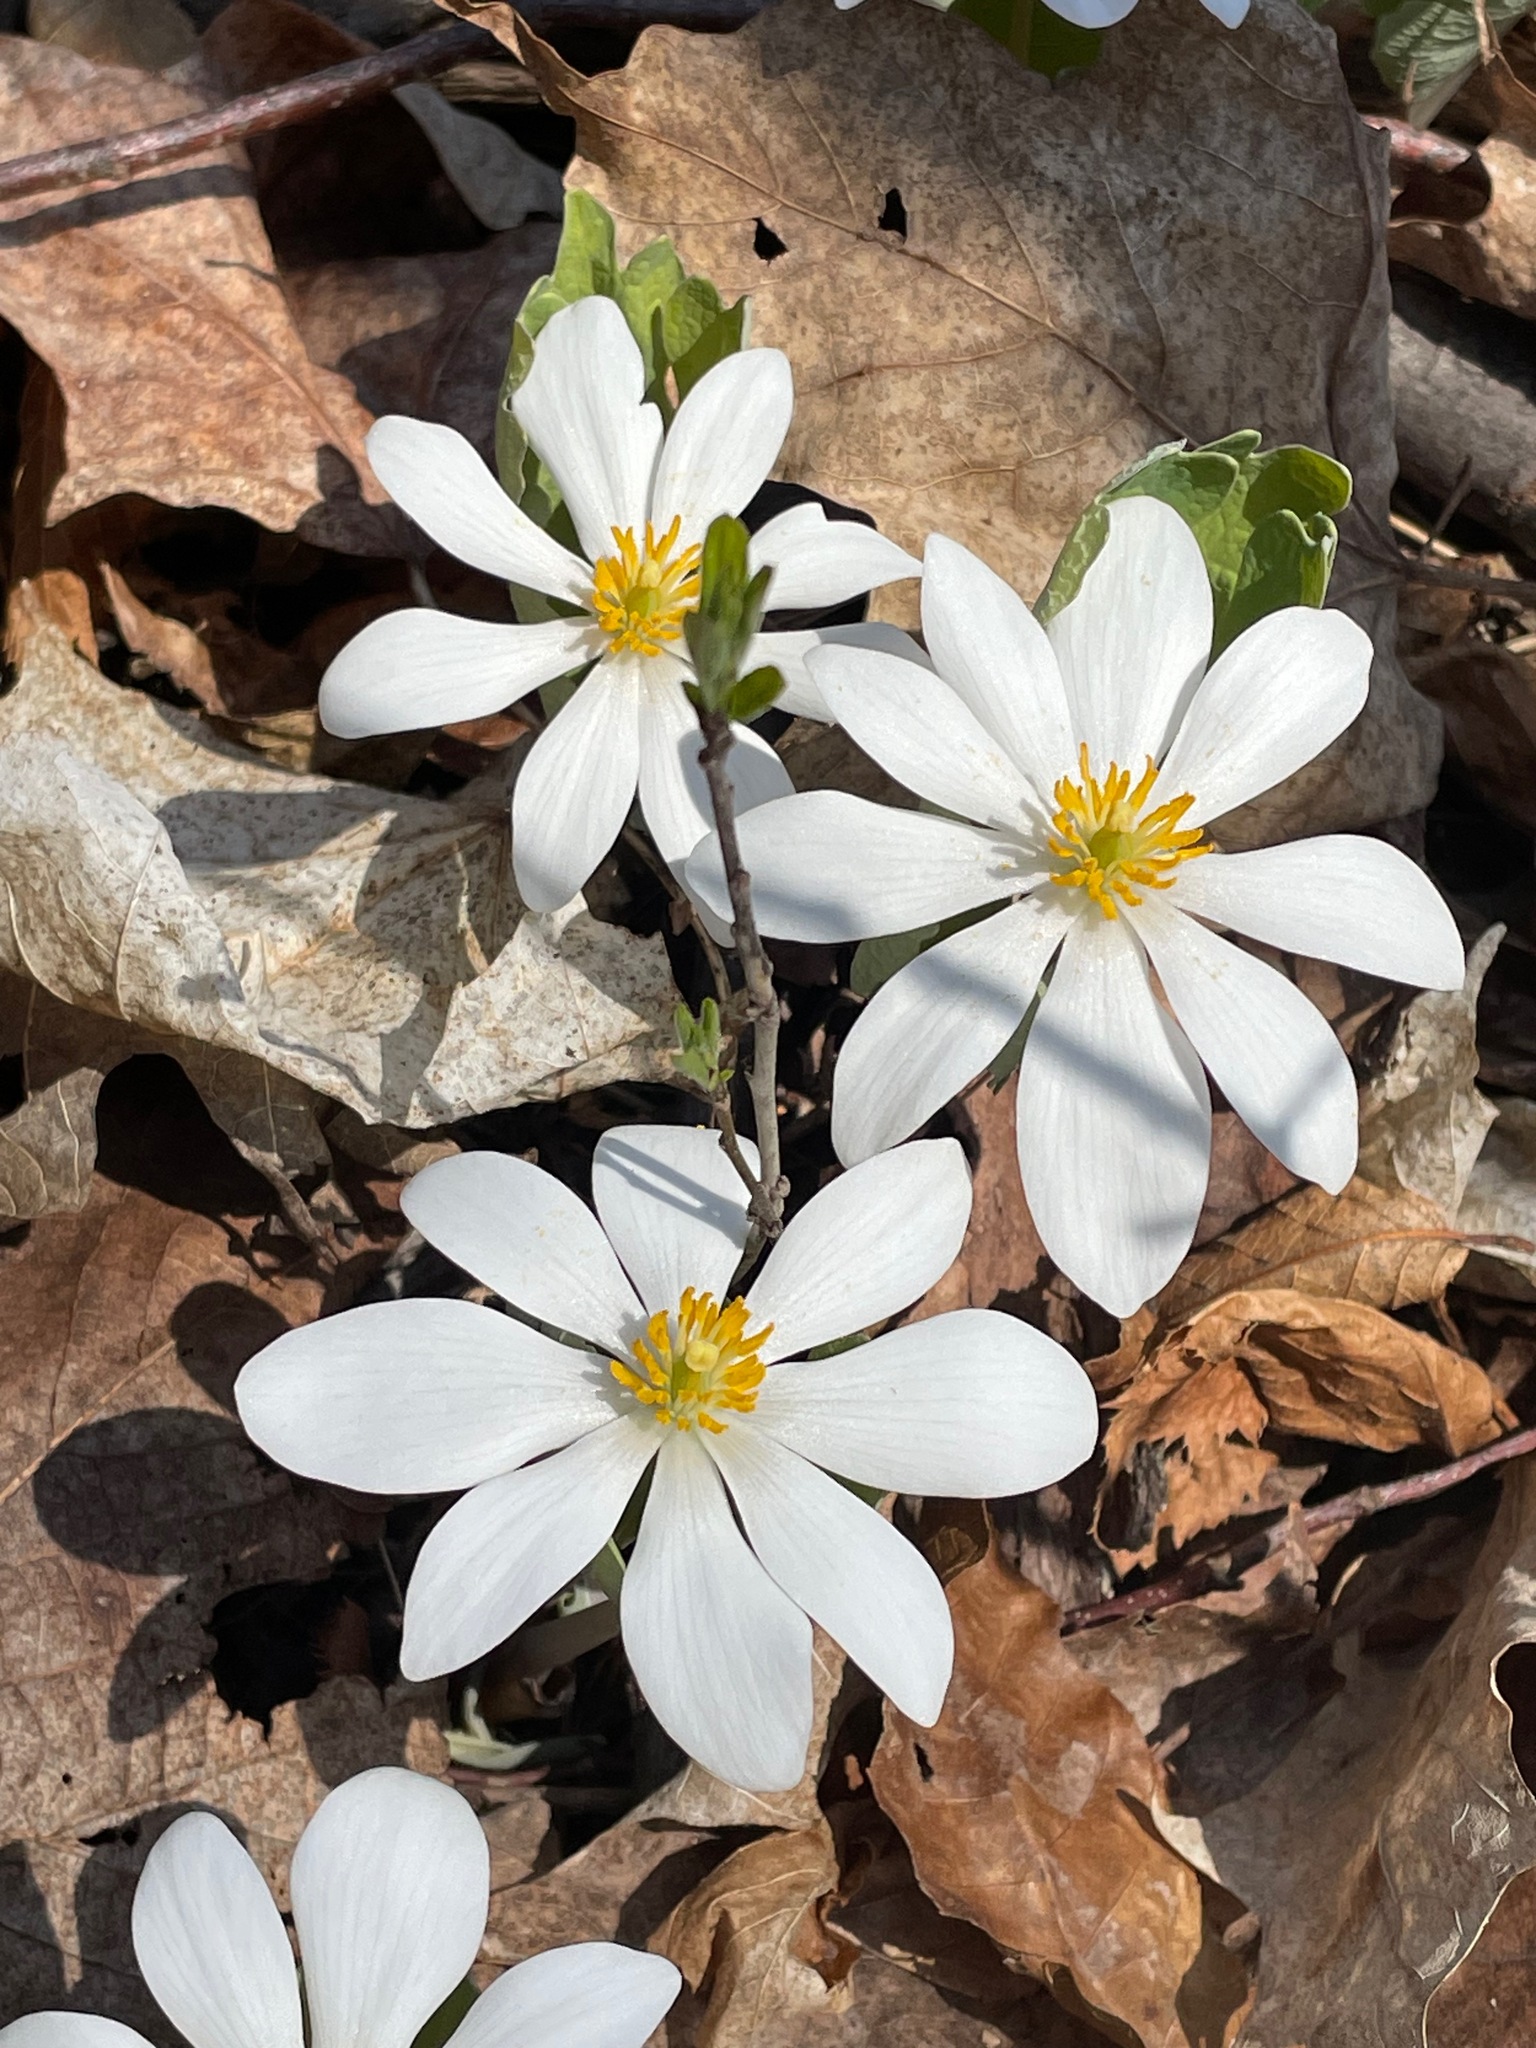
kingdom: Plantae
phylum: Tracheophyta
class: Magnoliopsida
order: Ranunculales
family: Papaveraceae
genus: Sanguinaria
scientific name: Sanguinaria canadensis
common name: Bloodroot
